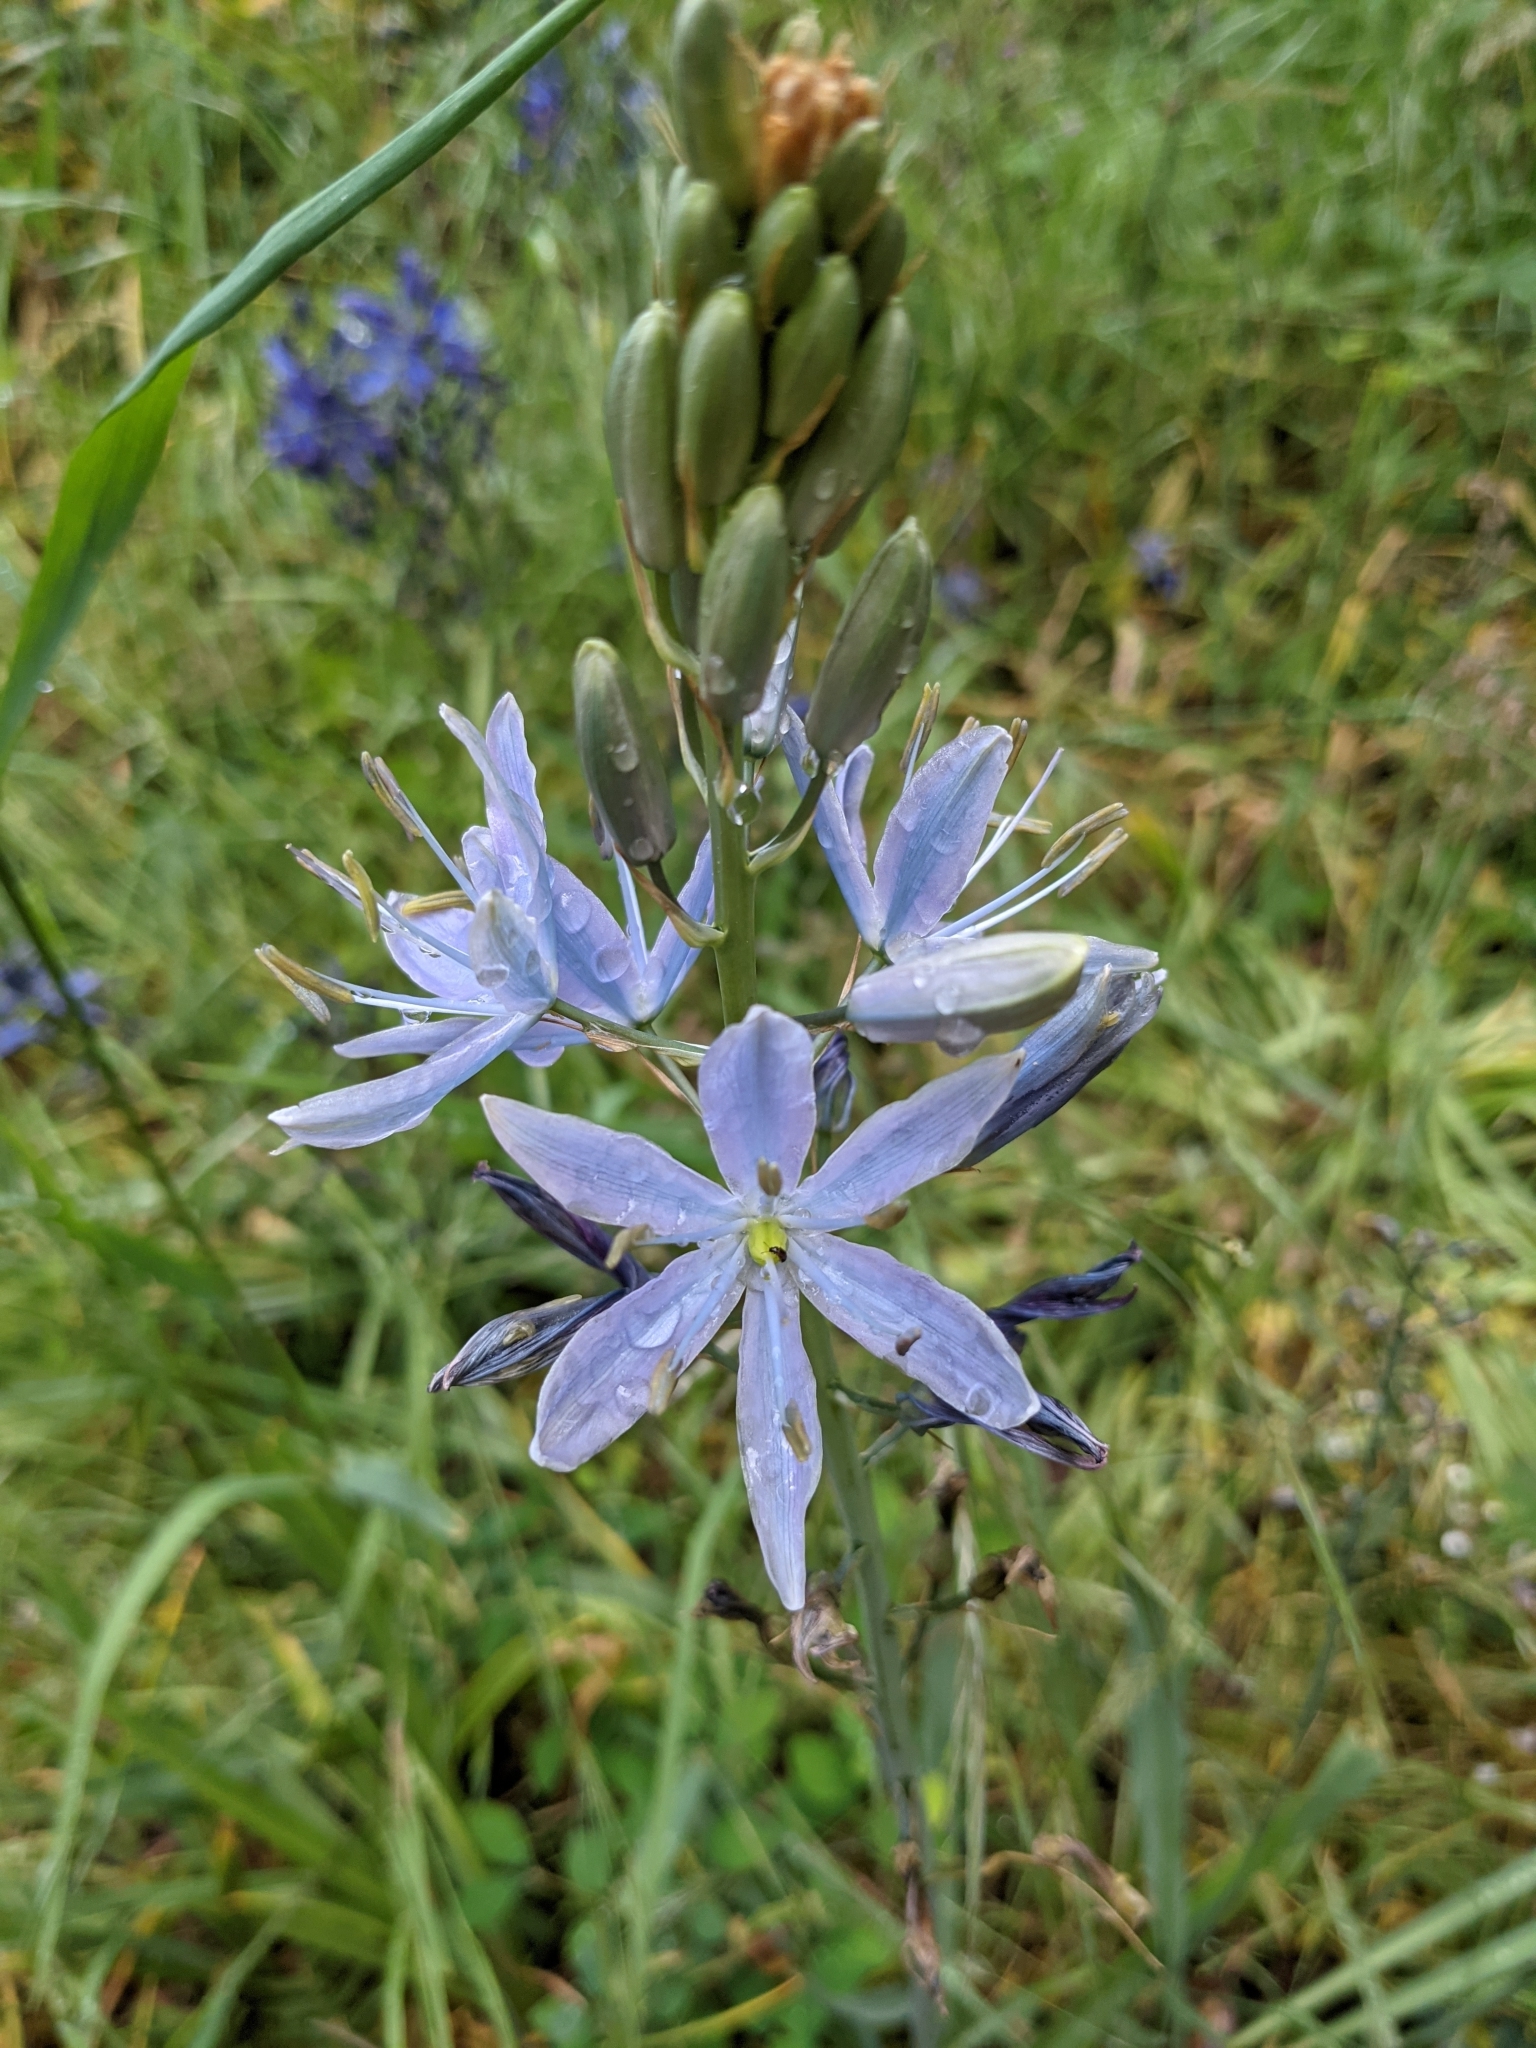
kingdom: Plantae
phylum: Tracheophyta
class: Liliopsida
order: Asparagales
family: Asparagaceae
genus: Camassia
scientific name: Camassia leichtlinii
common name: Leichtlin's camas
